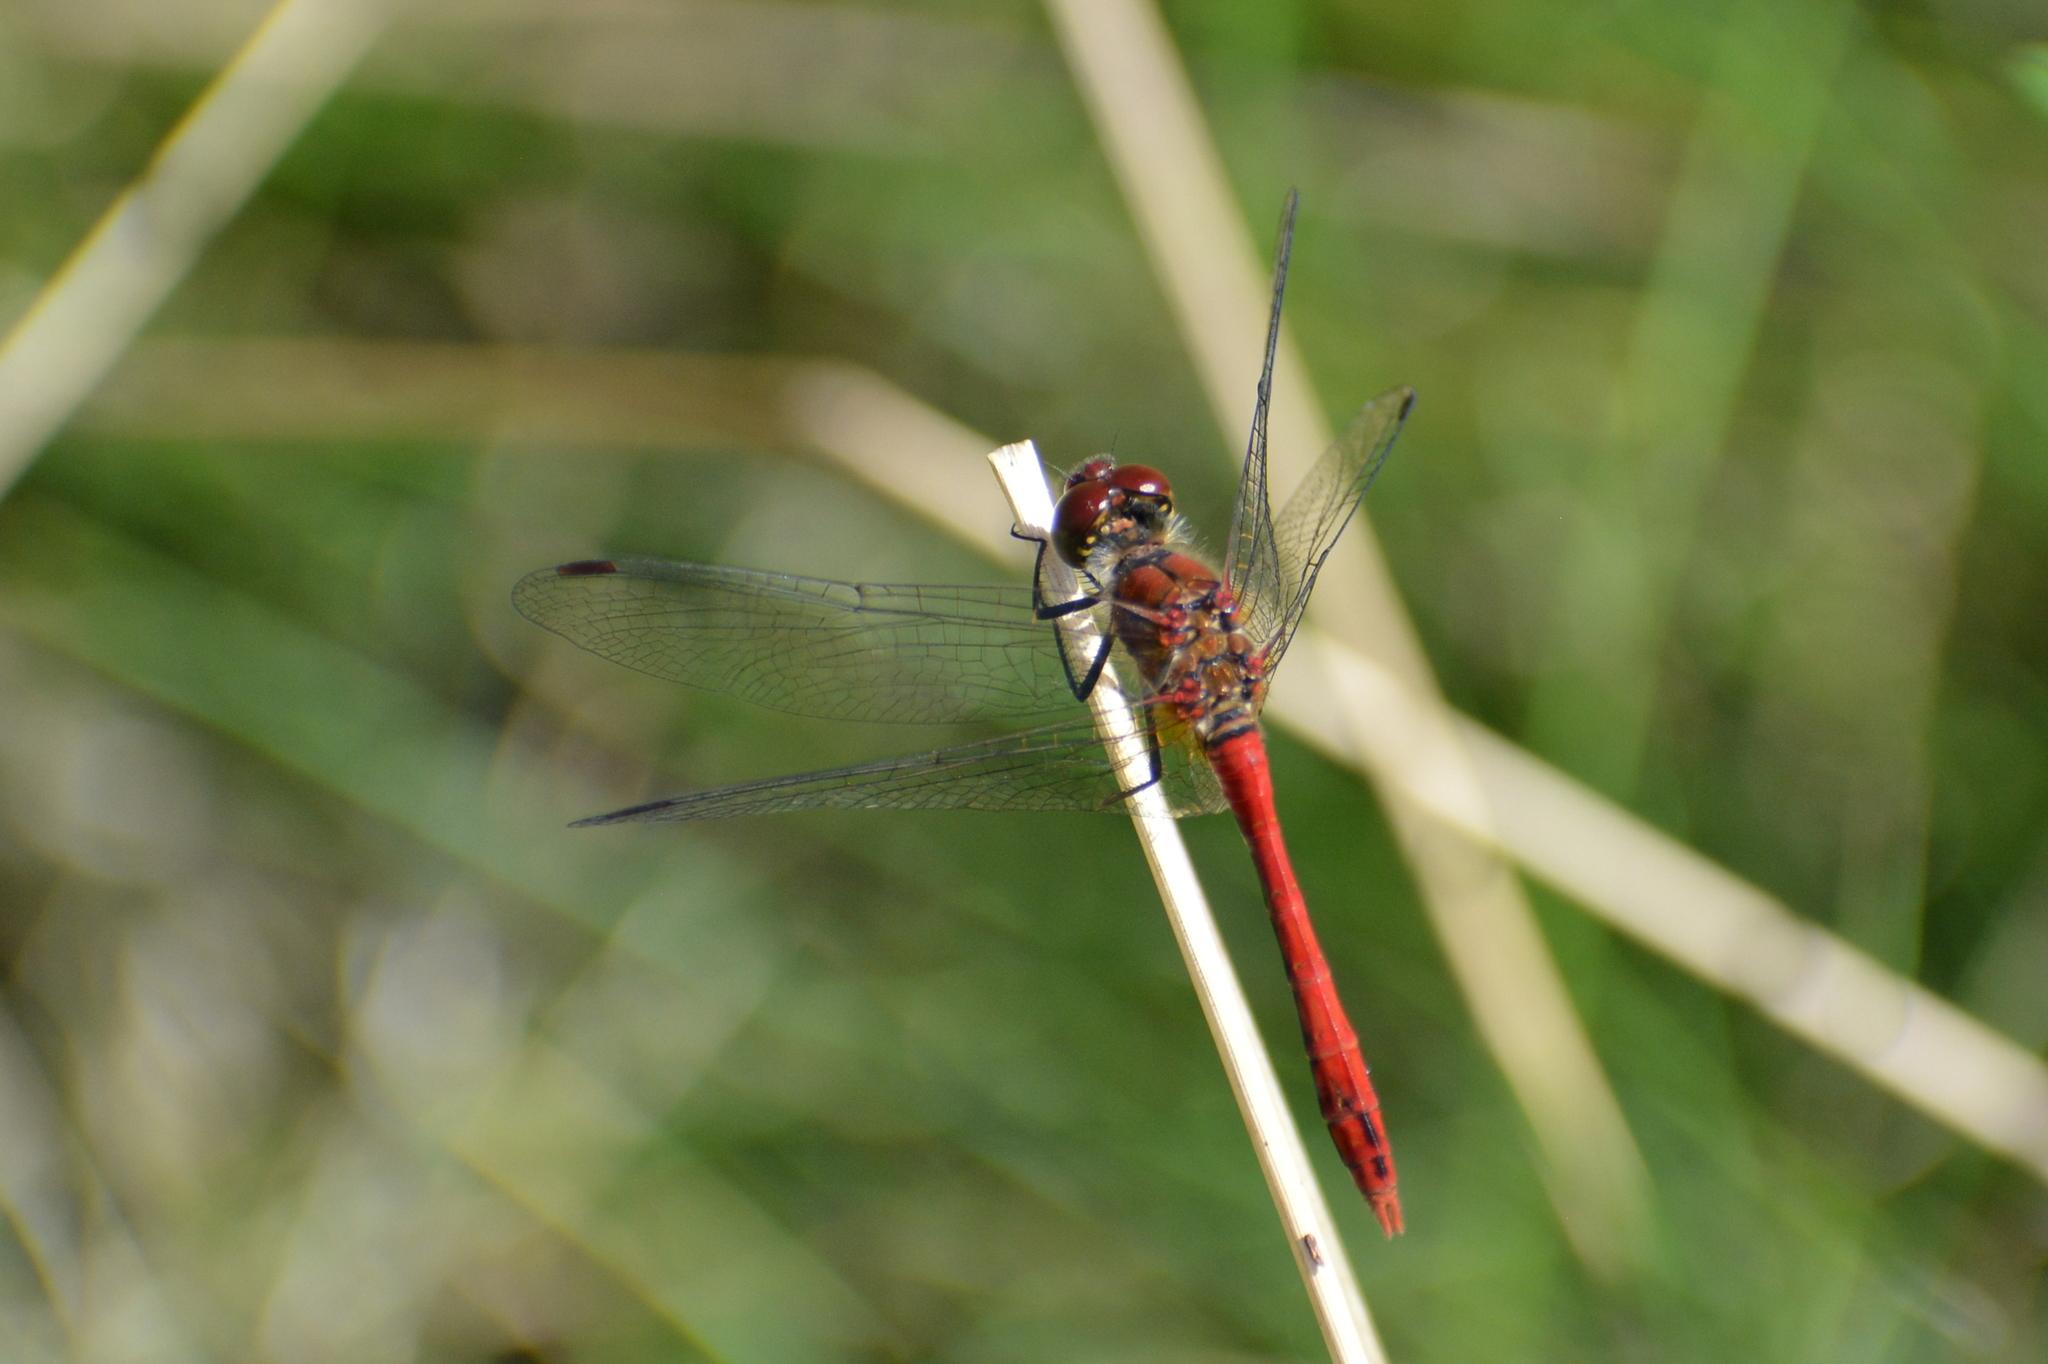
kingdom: Animalia
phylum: Arthropoda
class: Insecta
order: Odonata
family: Libellulidae
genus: Sympetrum
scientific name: Sympetrum sanguineum
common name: Ruddy darter
